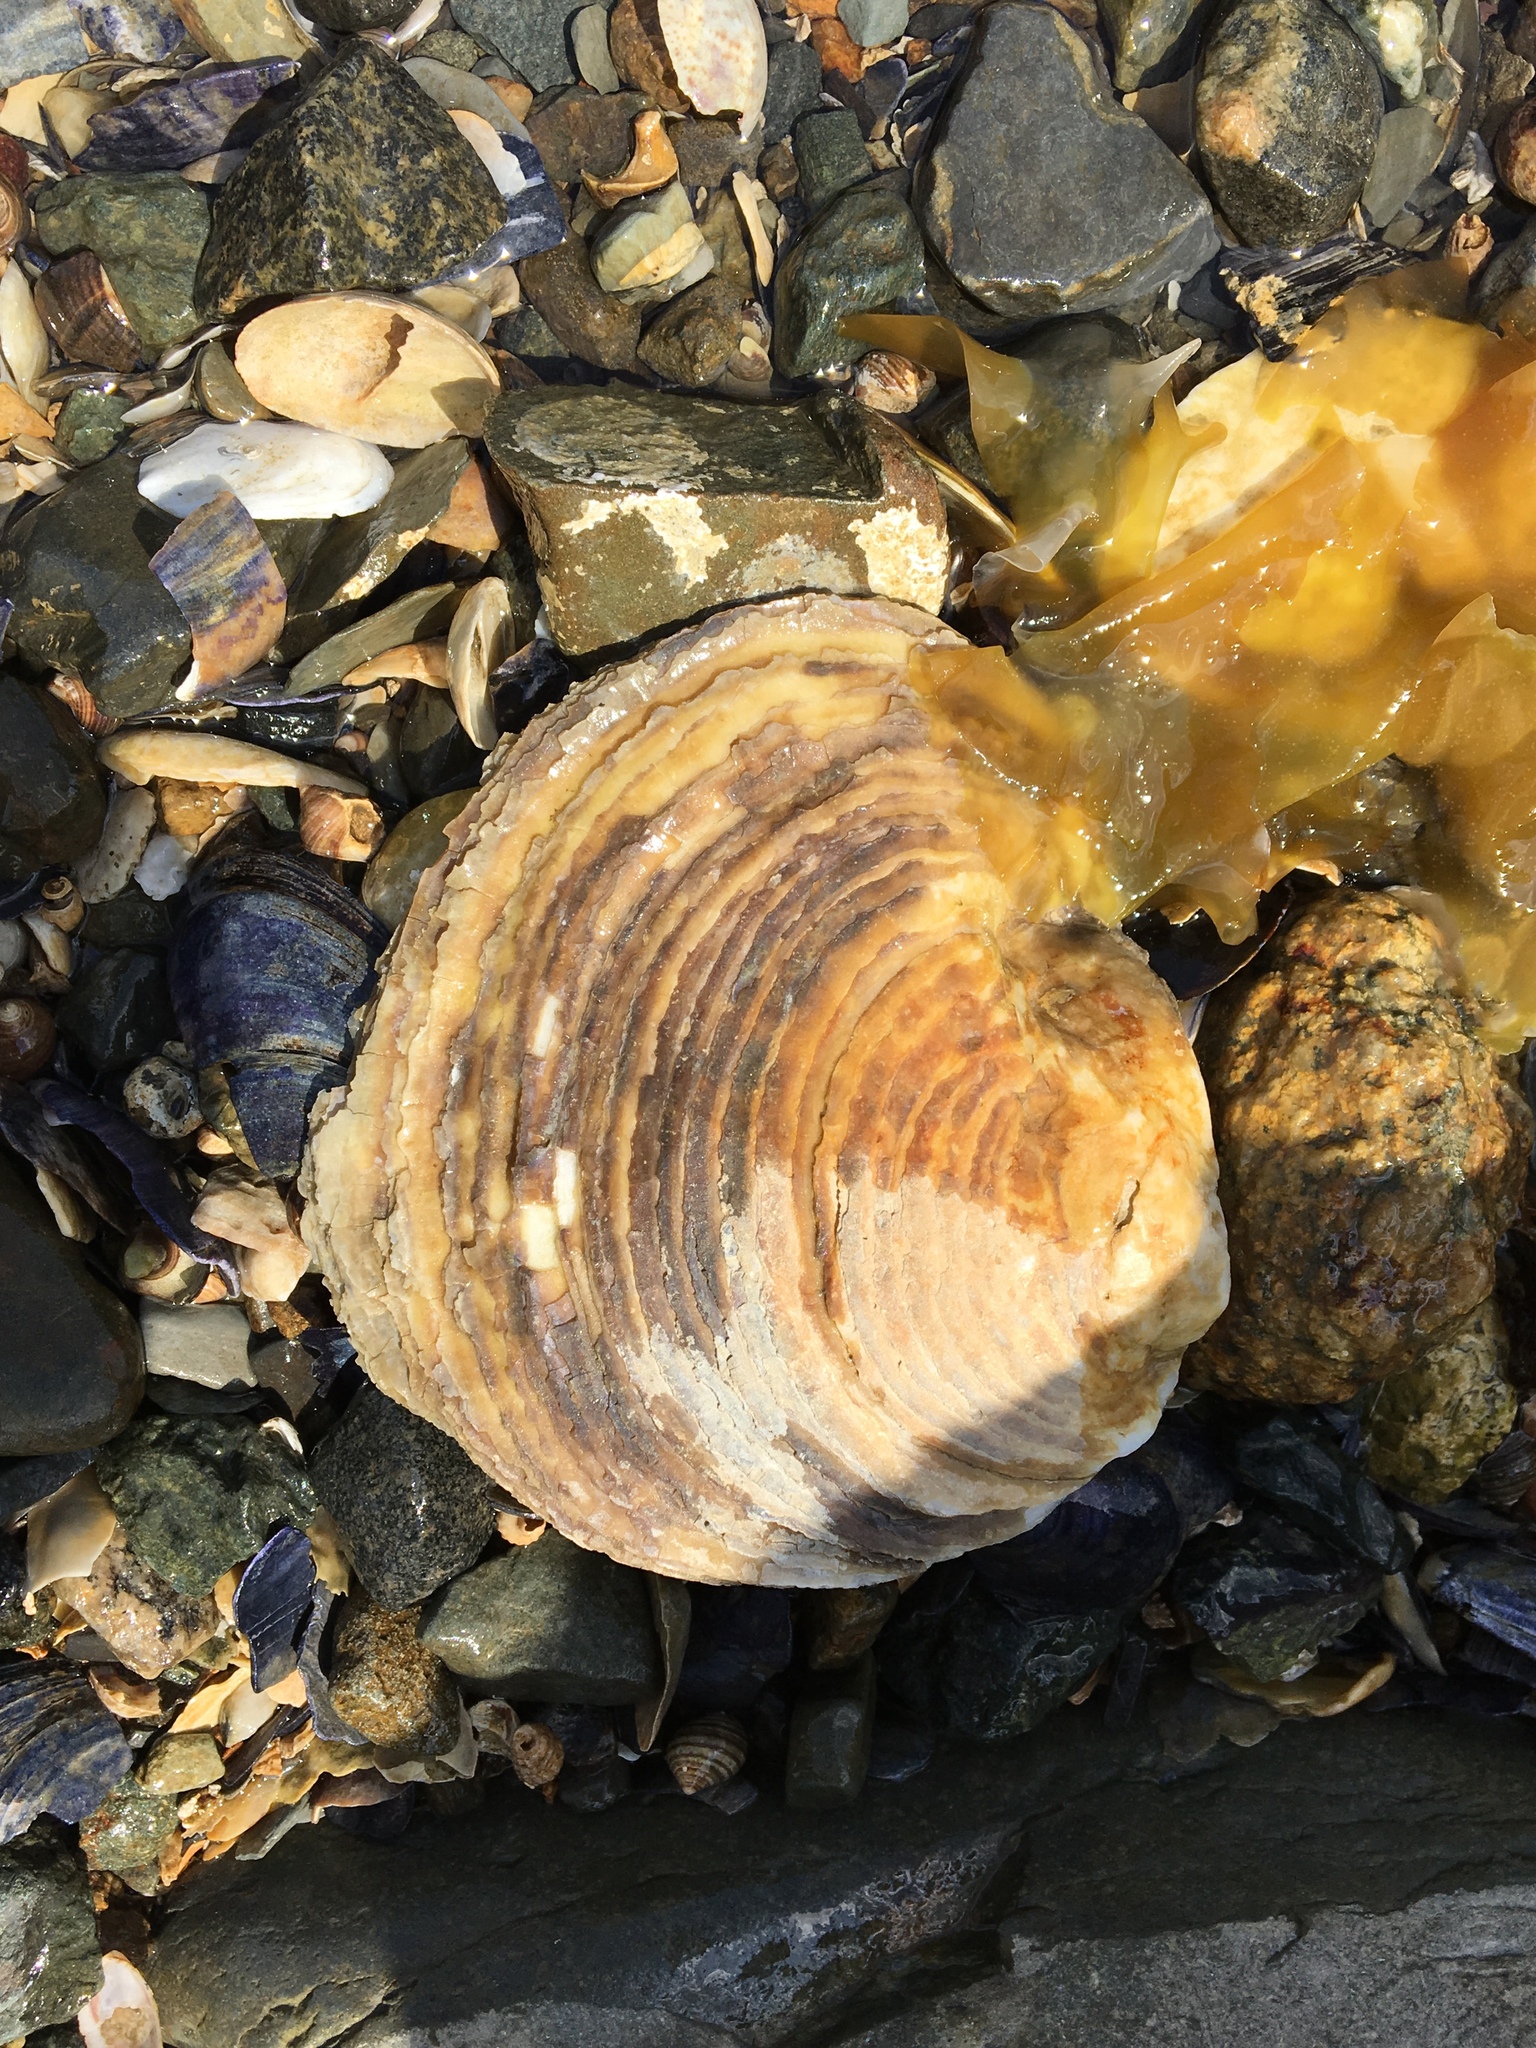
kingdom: Animalia
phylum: Mollusca
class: Bivalvia
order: Ostreida
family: Ostreidae
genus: Ostrea
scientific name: Ostrea edulis
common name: Flat oyster
